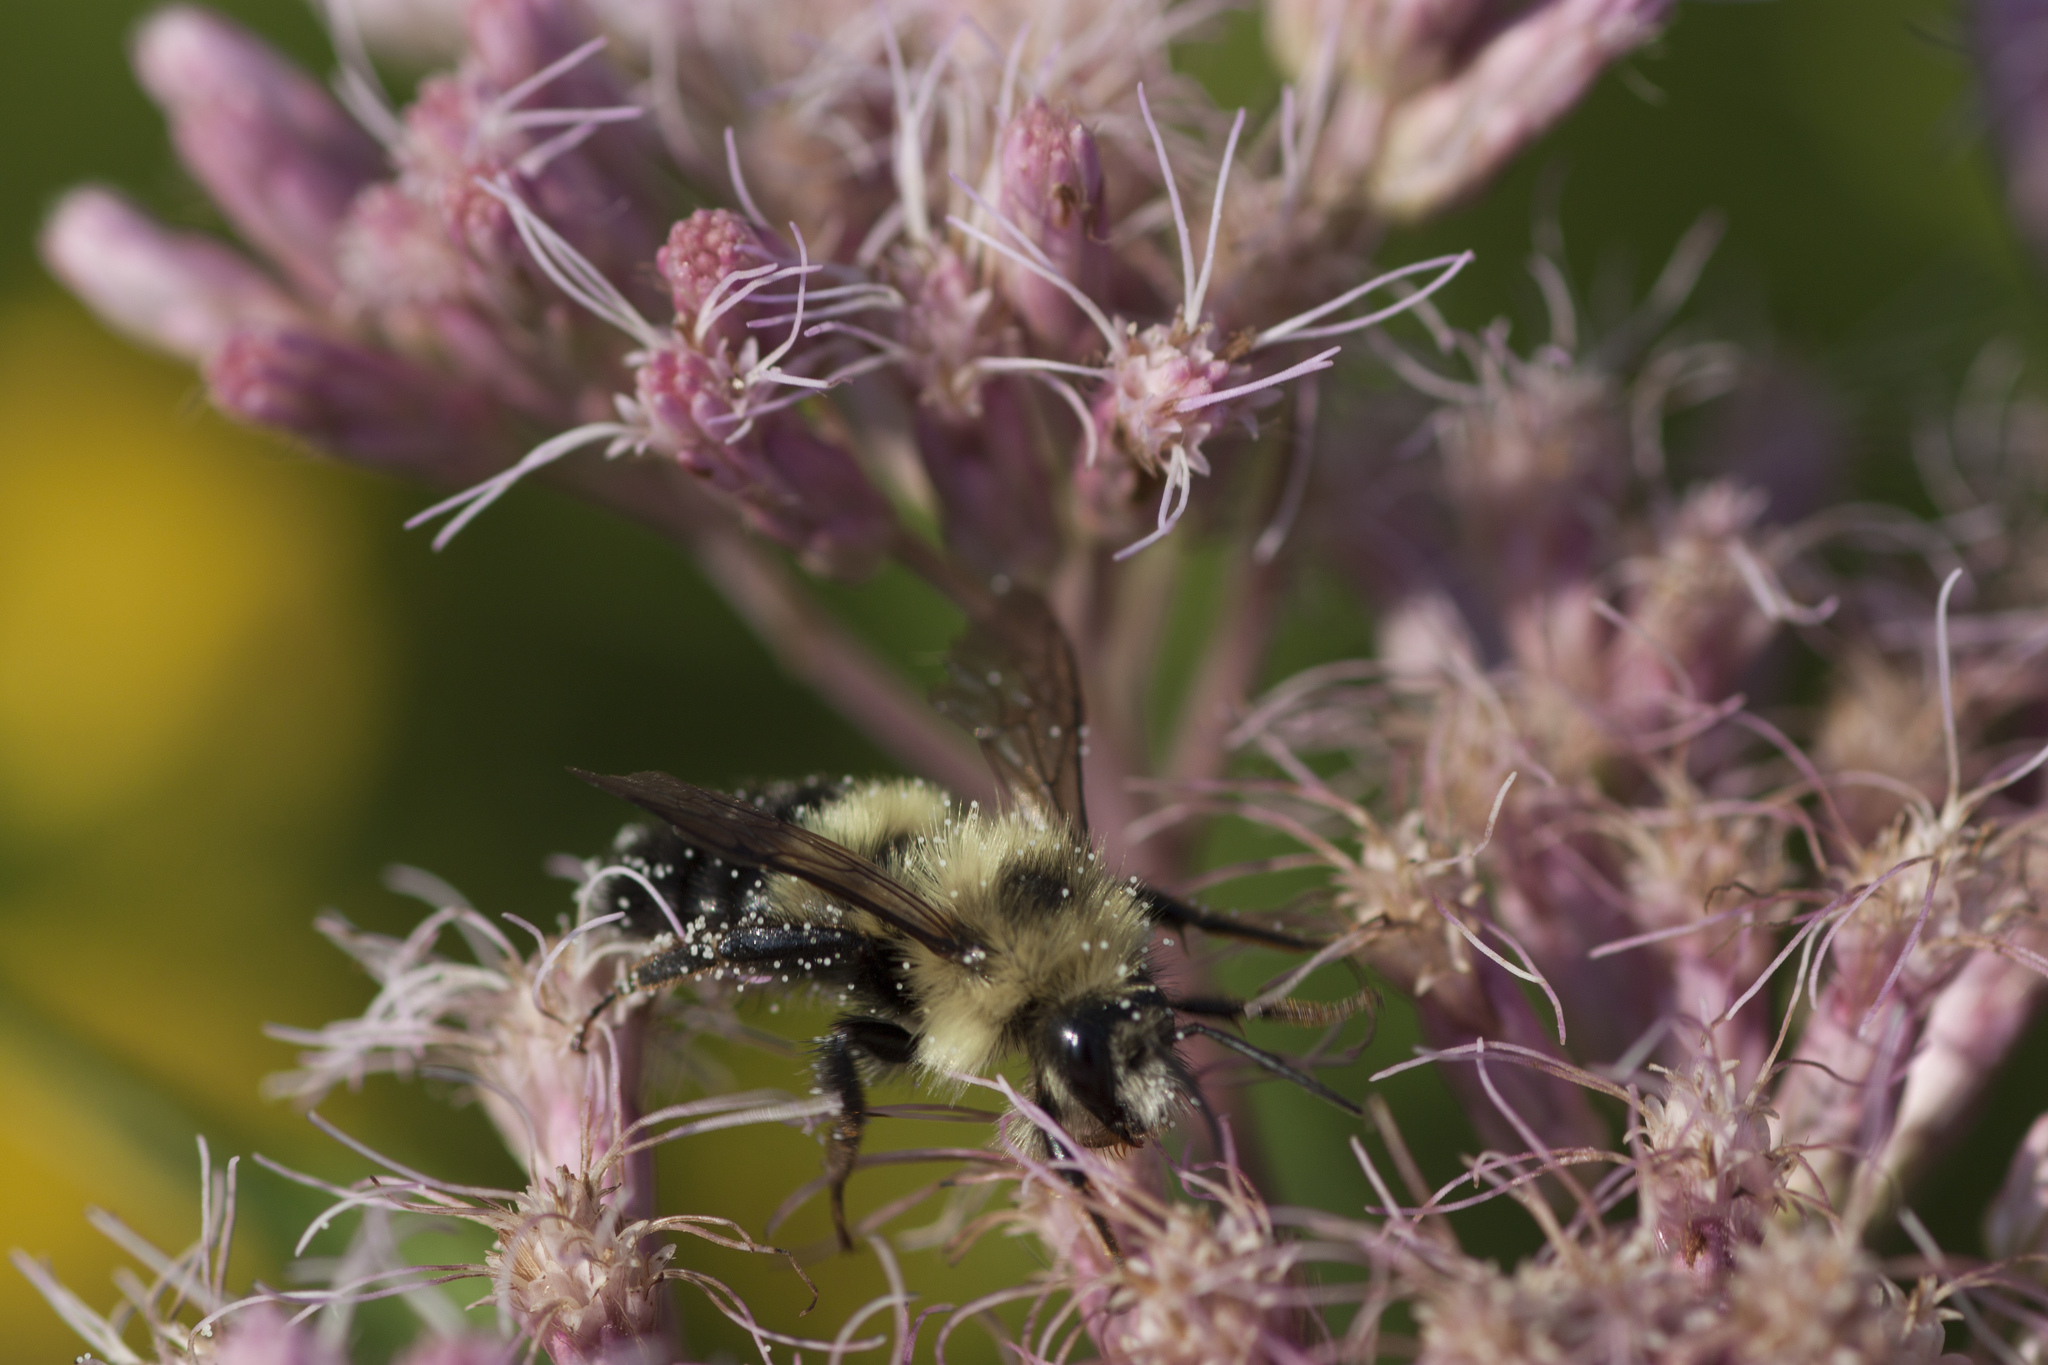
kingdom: Animalia
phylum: Arthropoda
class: Insecta
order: Hymenoptera
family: Apidae
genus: Bombus
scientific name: Bombus vagans
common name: Half-black bumble bee
